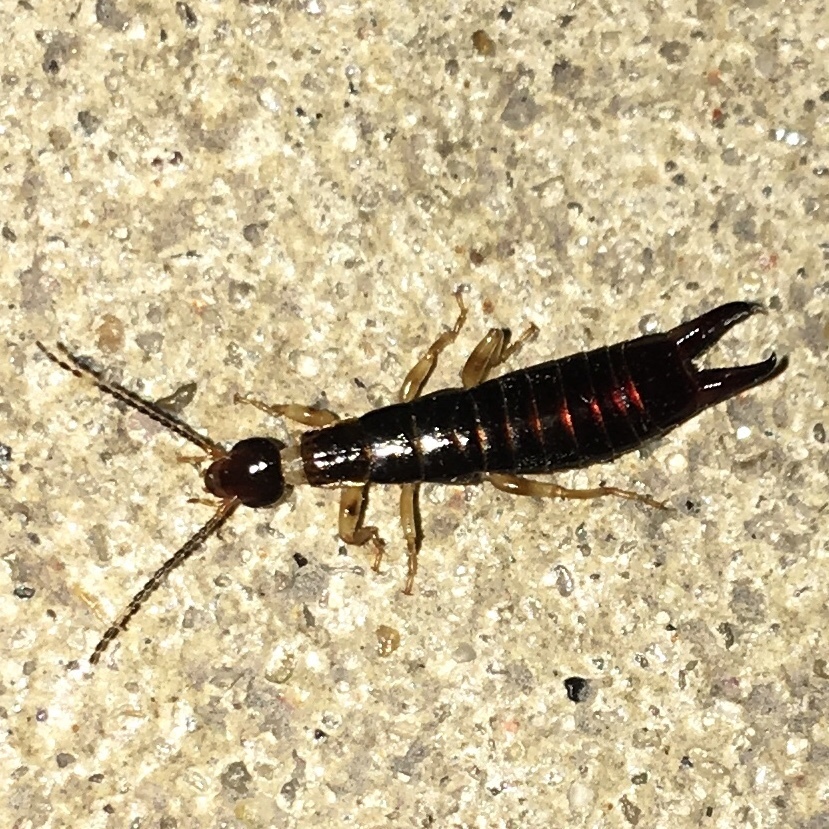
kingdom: Animalia
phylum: Arthropoda
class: Insecta
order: Dermaptera
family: Anisolabididae
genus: Euborellia
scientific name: Euborellia annulipes
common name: Ringlegged earwig
